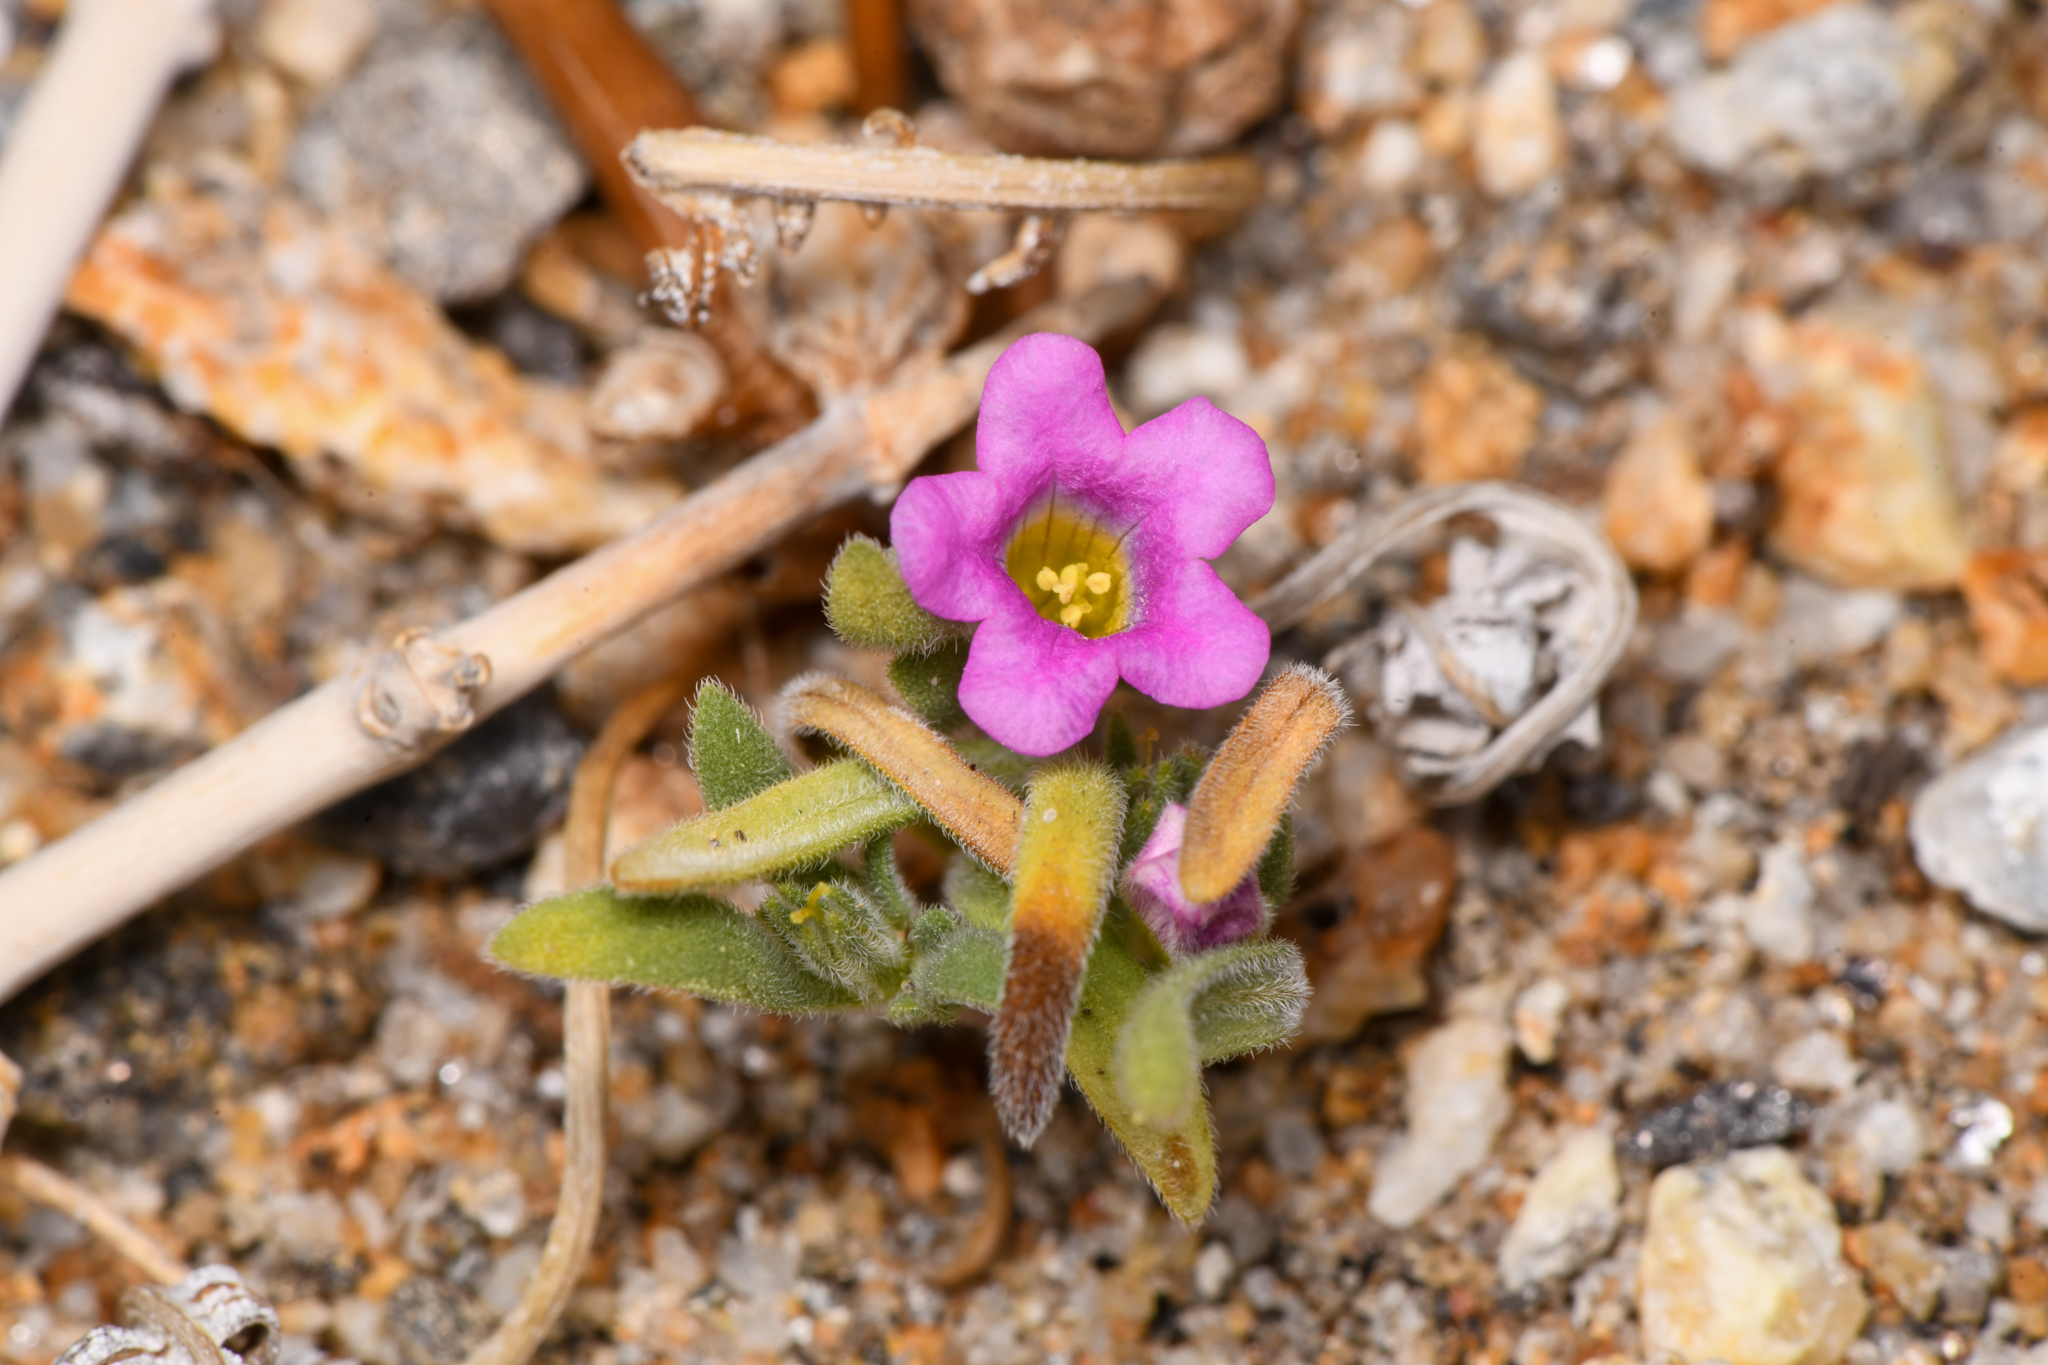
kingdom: Plantae
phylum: Tracheophyta
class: Magnoliopsida
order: Boraginales
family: Namaceae
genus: Nama
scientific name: Nama demissa
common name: Leafy nama
